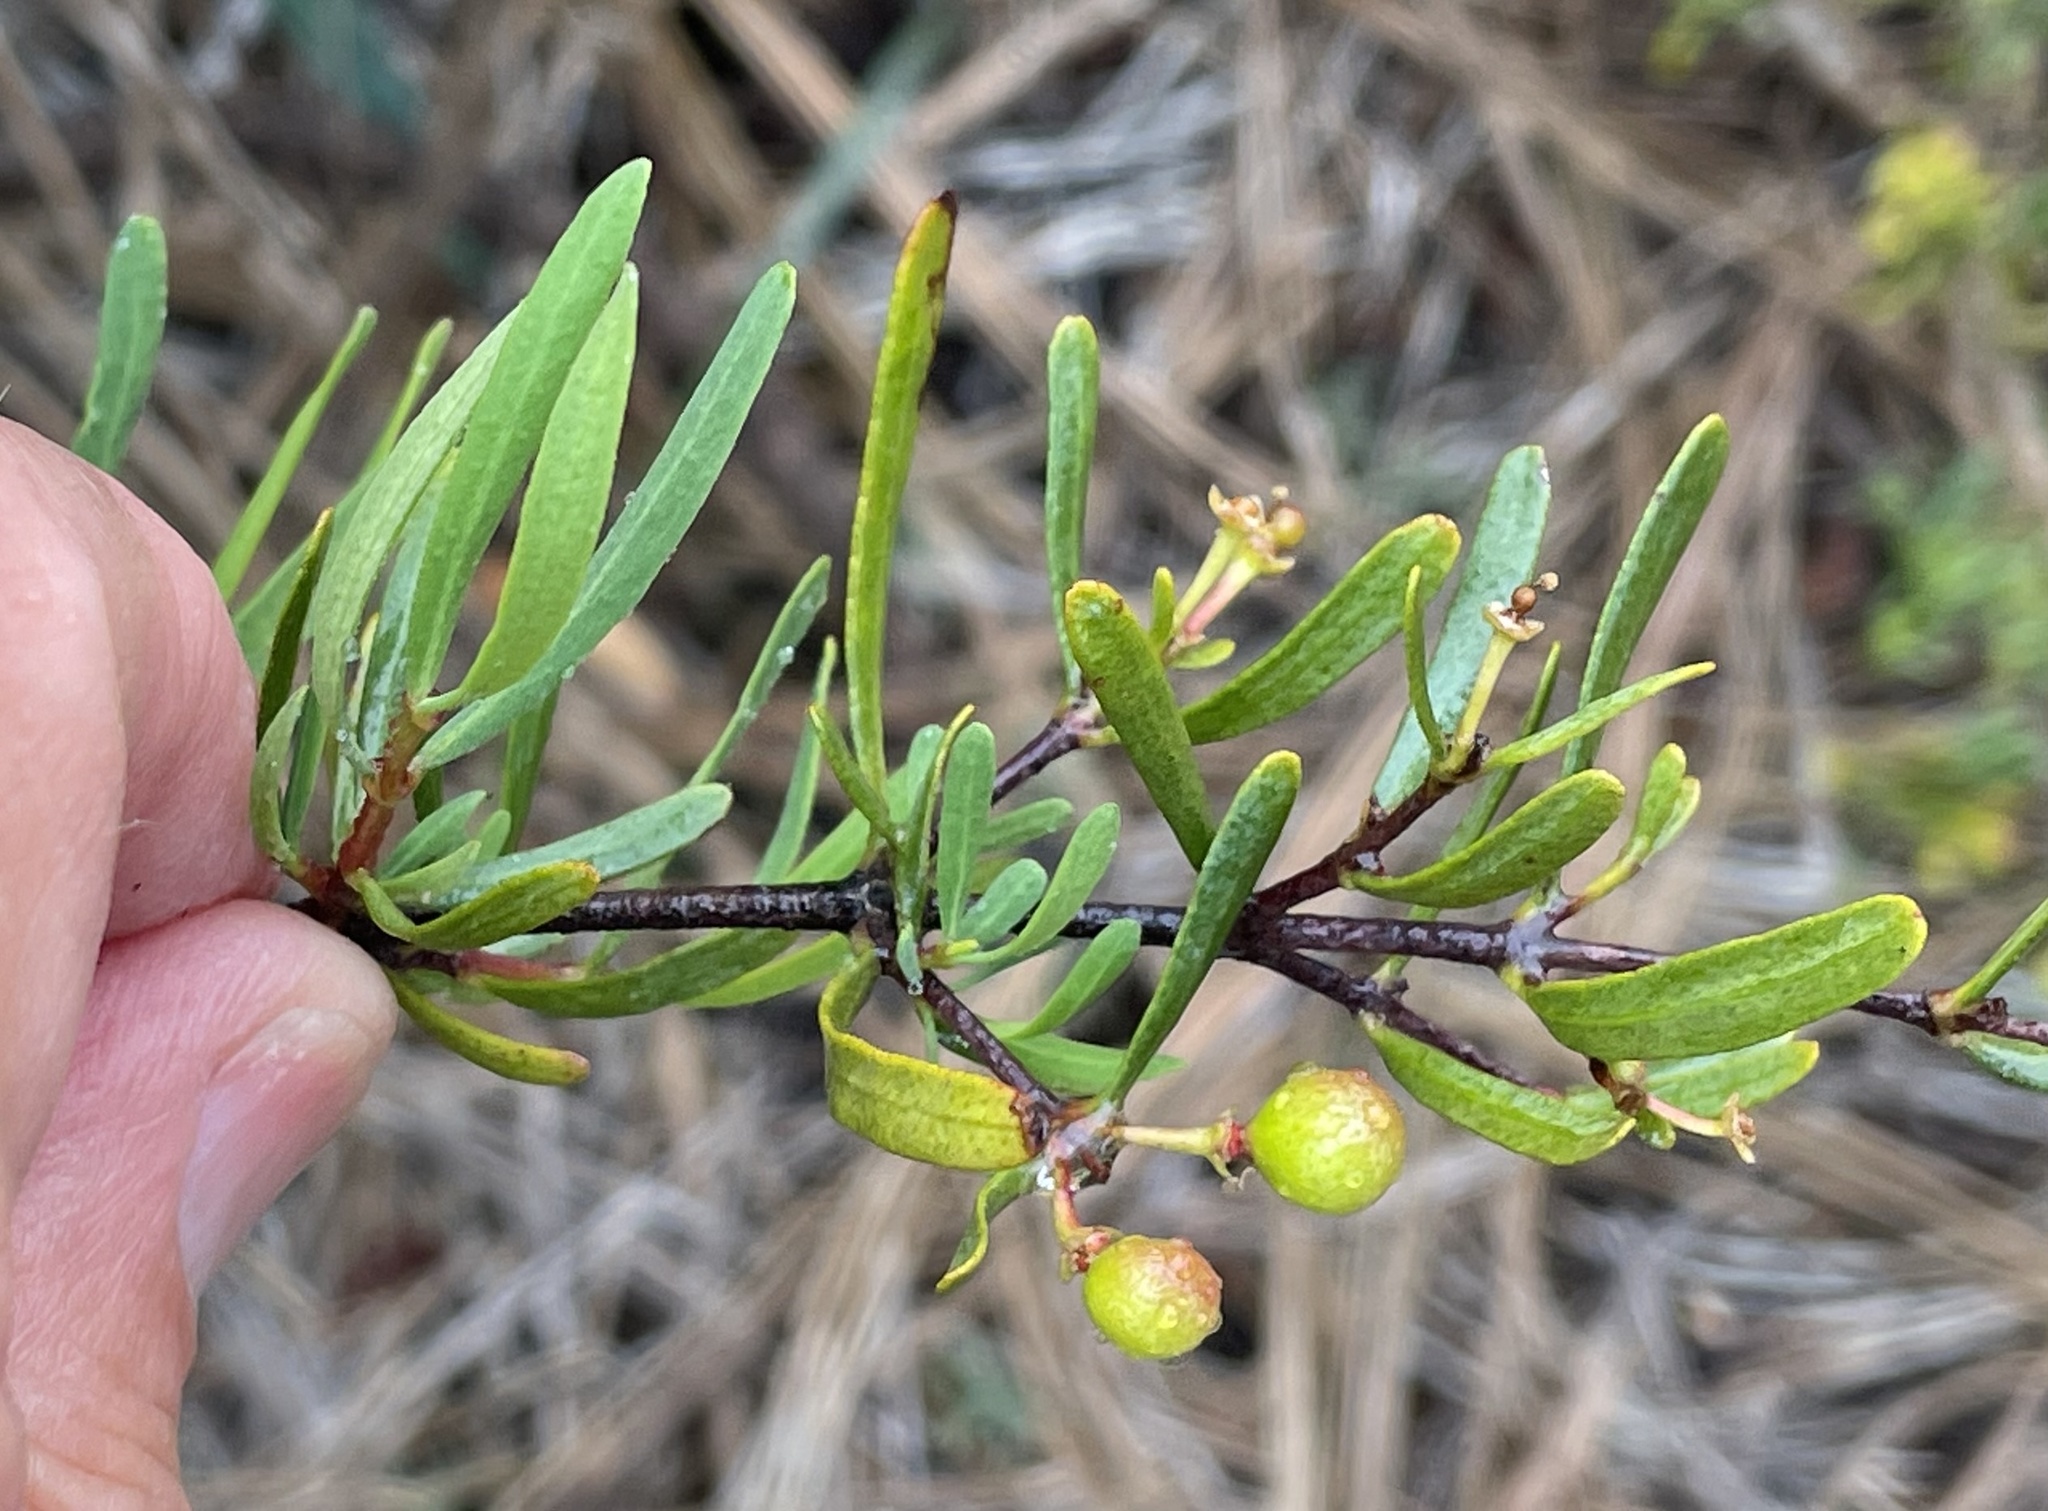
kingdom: Plantae
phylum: Tracheophyta
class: Magnoliopsida
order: Sapindales
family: Rutaceae
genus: Cneoridium
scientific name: Cneoridium dumosum
